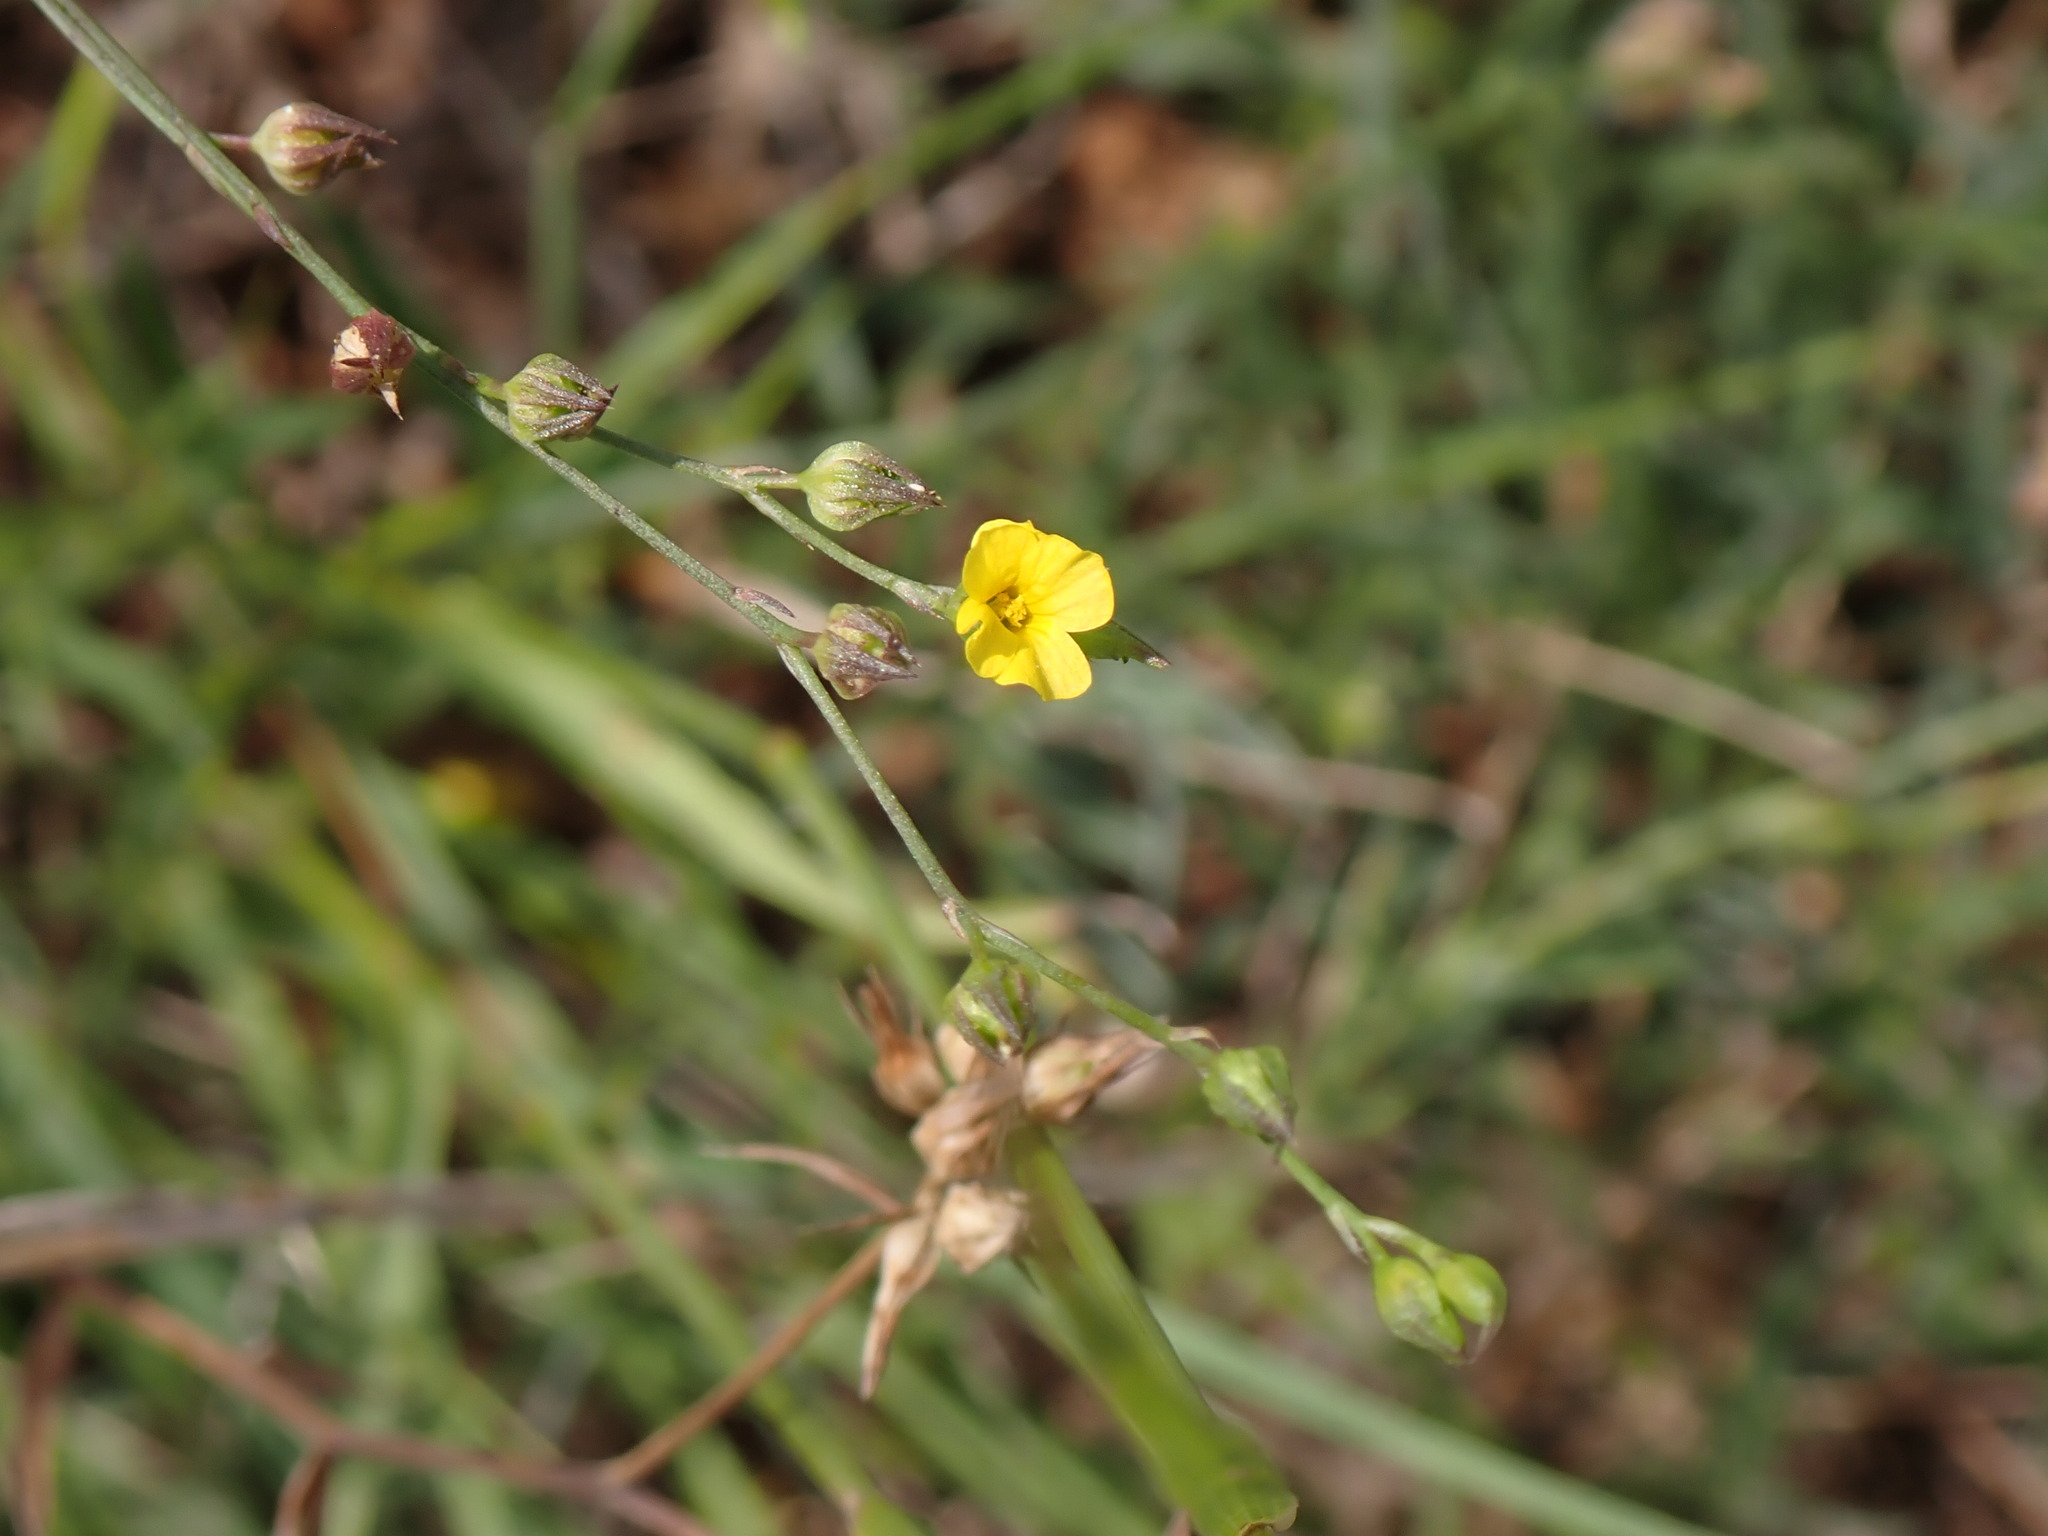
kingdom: Plantae
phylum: Tracheophyta
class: Magnoliopsida
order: Malpighiales
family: Linaceae
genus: Linum
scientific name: Linum trigynum
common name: French flax
